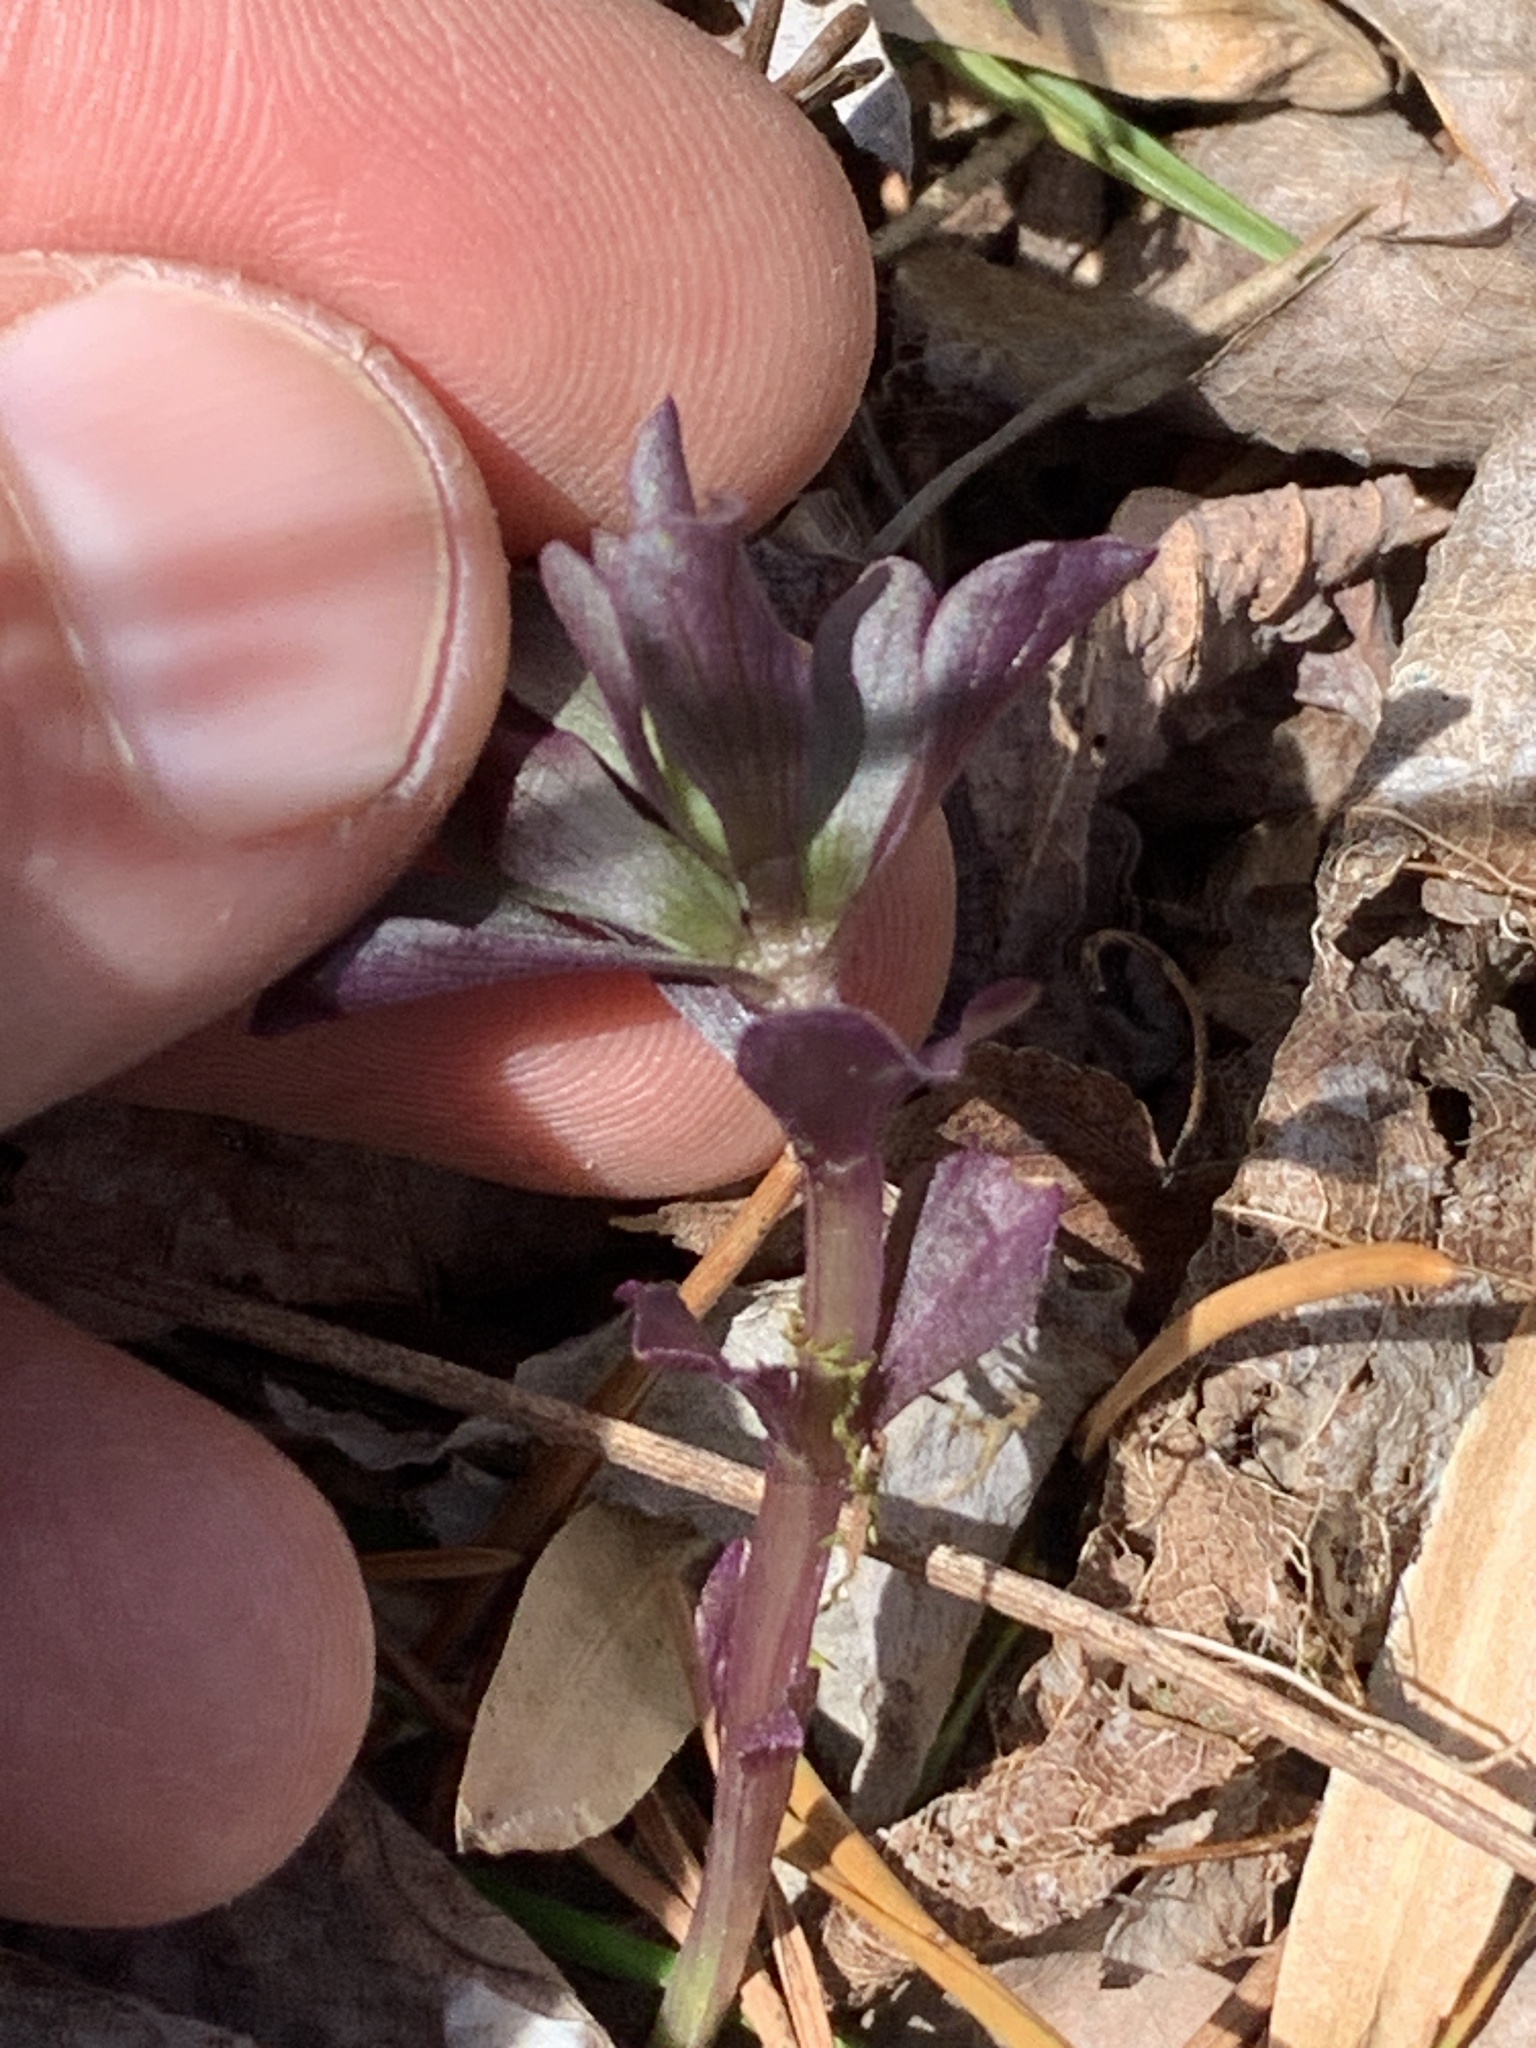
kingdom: Plantae
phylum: Tracheophyta
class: Magnoliopsida
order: Gentianales
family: Gentianaceae
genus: Obolaria
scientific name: Obolaria virginica
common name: Pennywort
